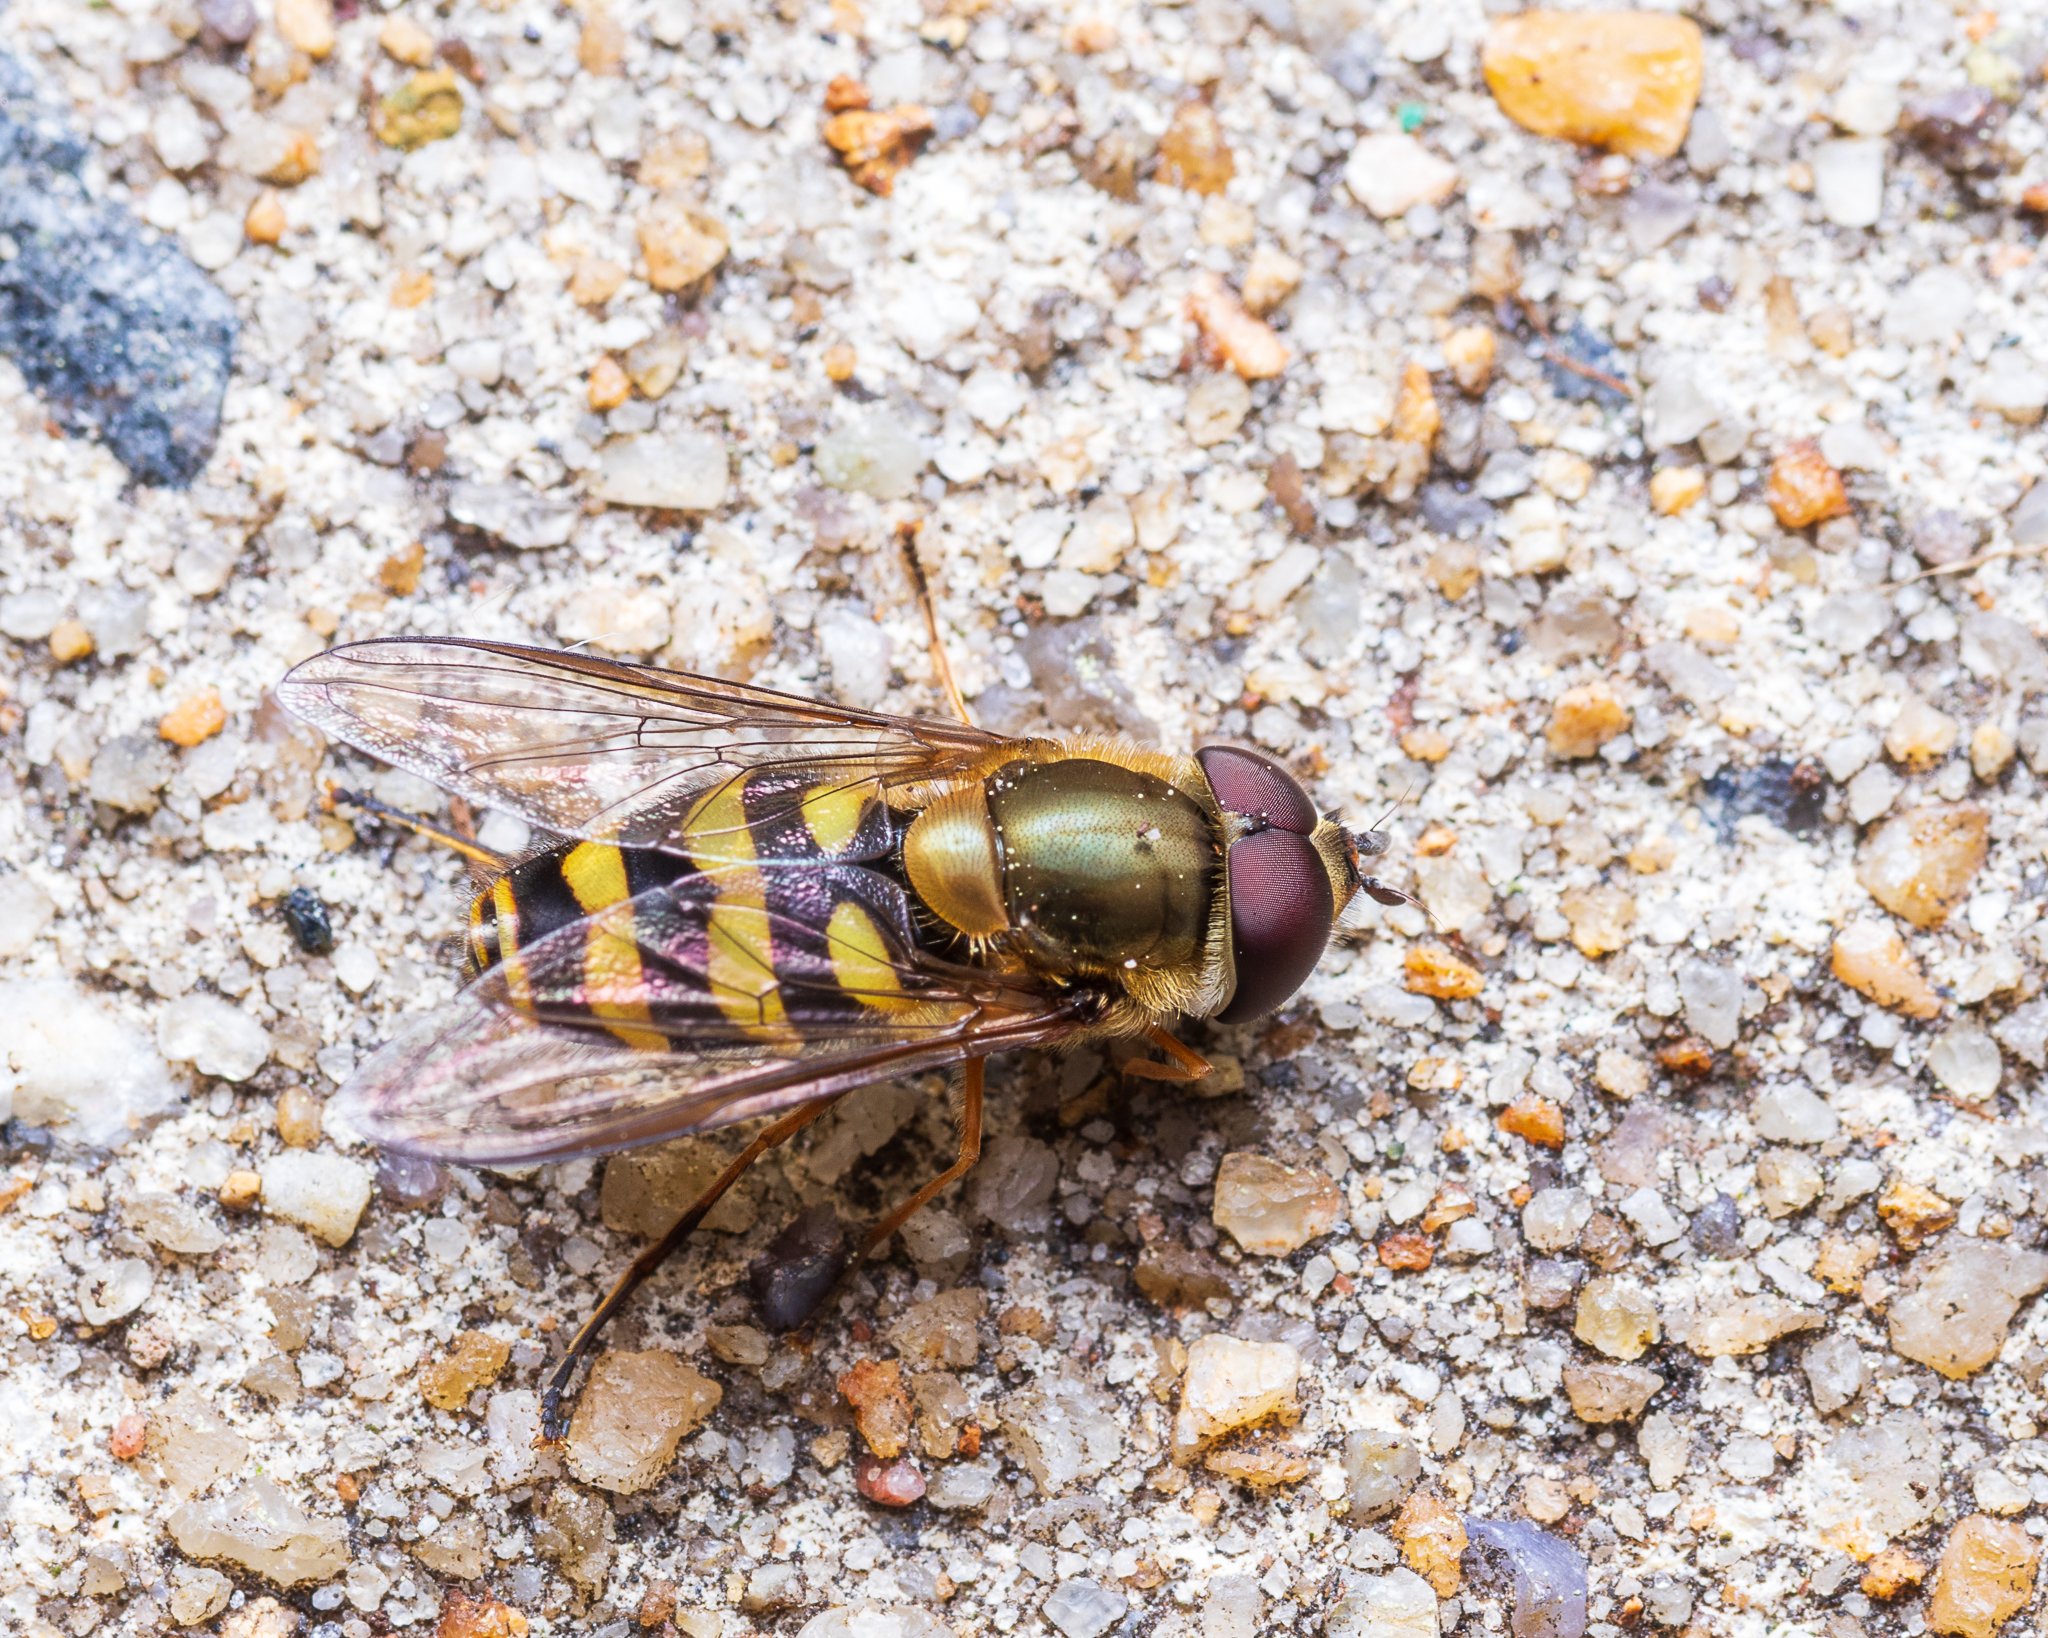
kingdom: Animalia
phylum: Arthropoda
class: Insecta
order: Diptera
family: Syrphidae
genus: Syrphus
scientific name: Syrphus torvus
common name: Hairy-eyed flower fly
